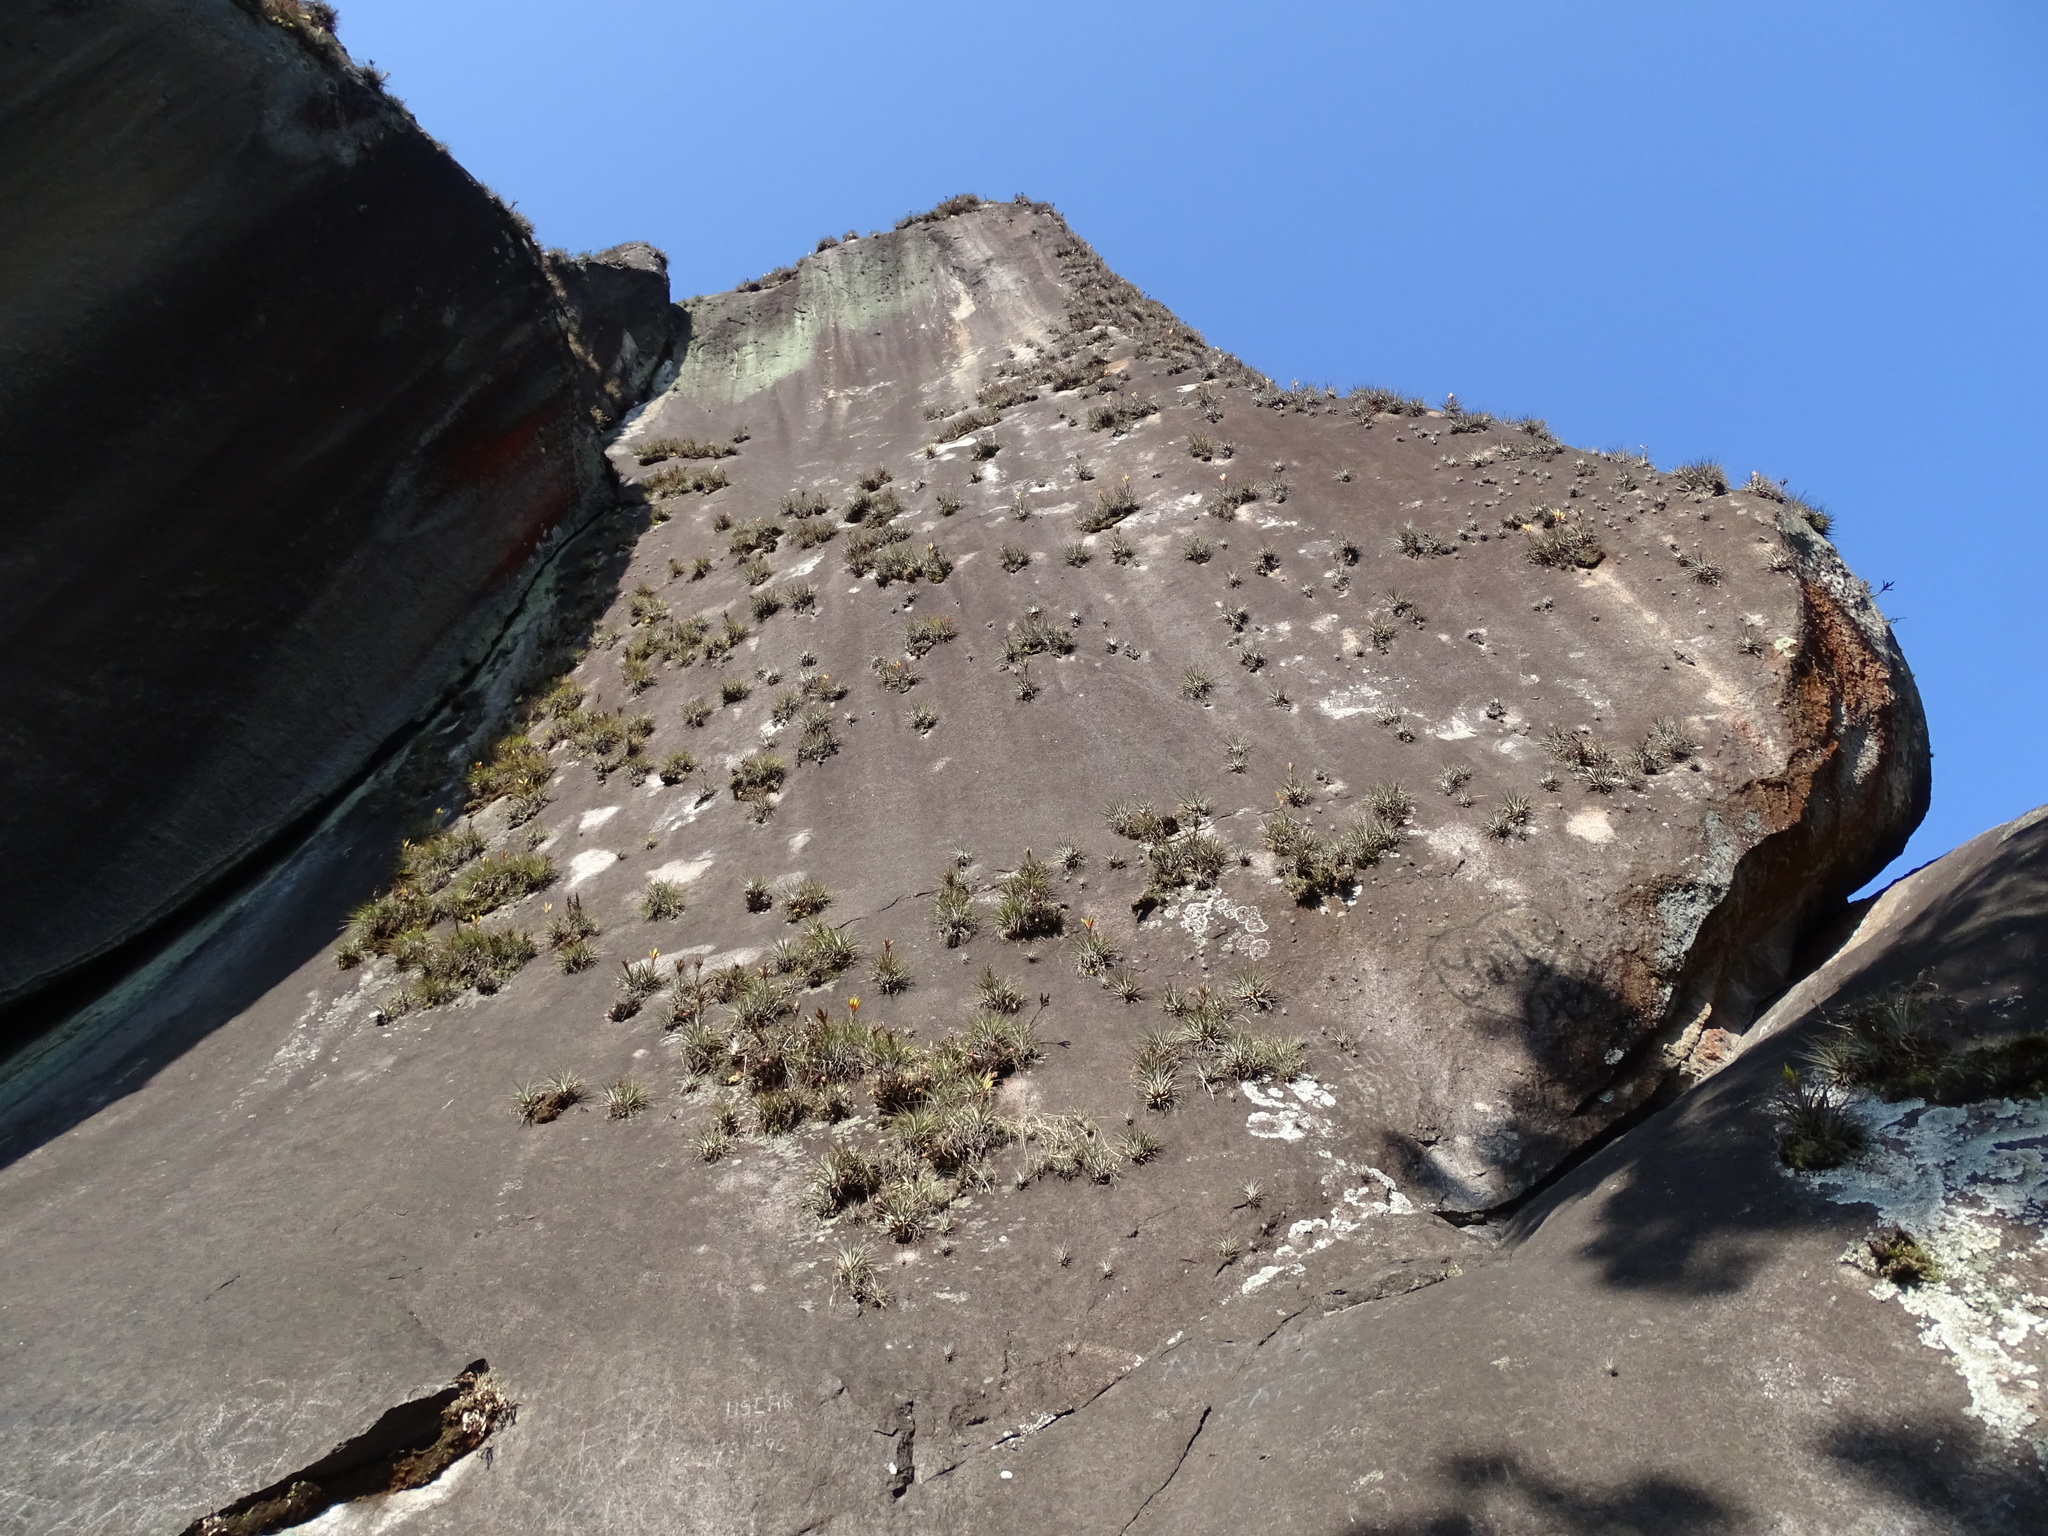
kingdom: Plantae
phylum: Tracheophyta
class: Liliopsida
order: Poales
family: Bromeliaceae
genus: Tillandsia
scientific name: Tillandsia fasciculata
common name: Giant airplant
